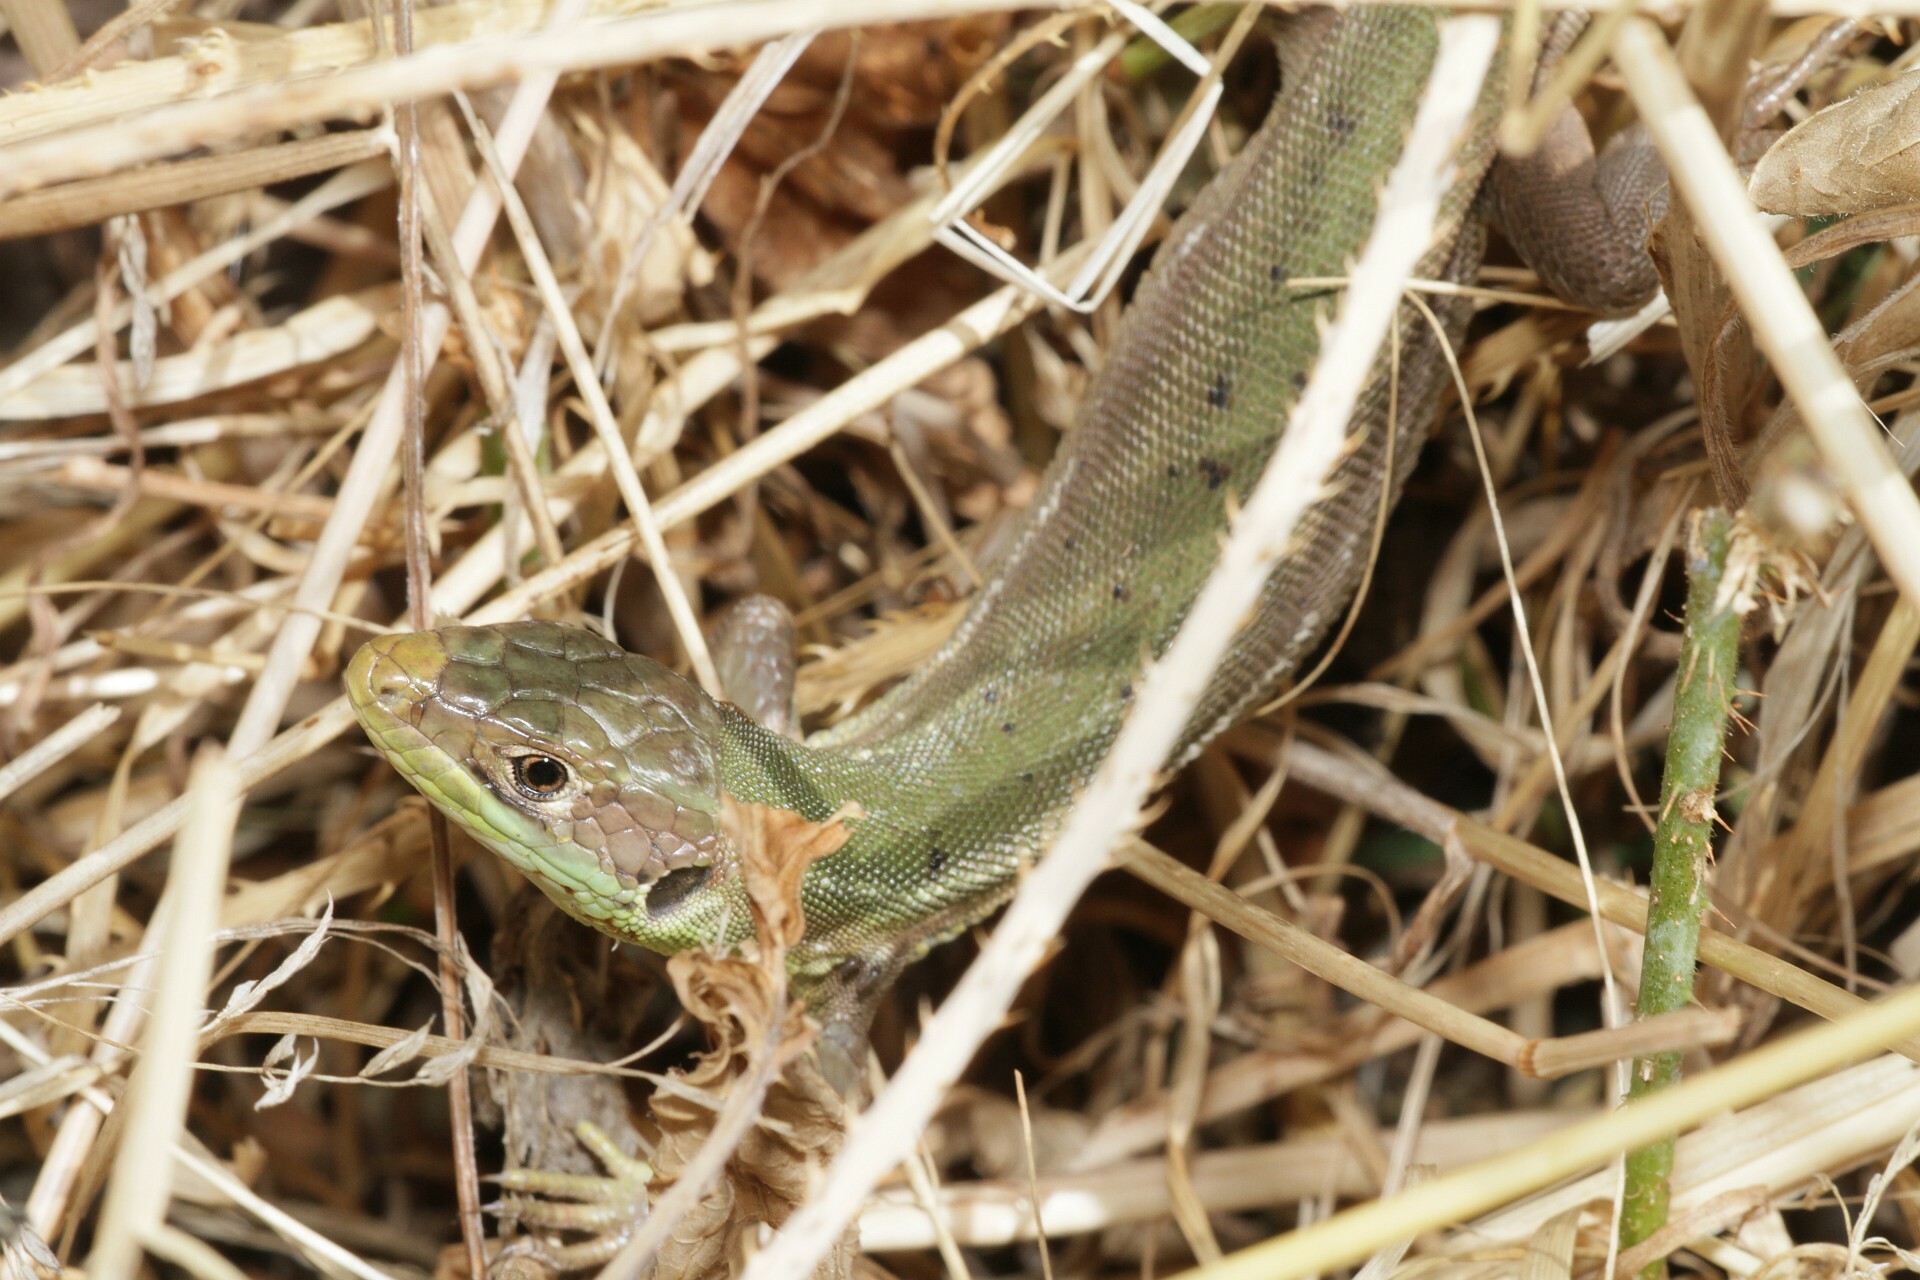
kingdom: Animalia
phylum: Chordata
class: Squamata
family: Lacertidae
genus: Lacerta
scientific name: Lacerta bilineata
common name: Western green lizard
